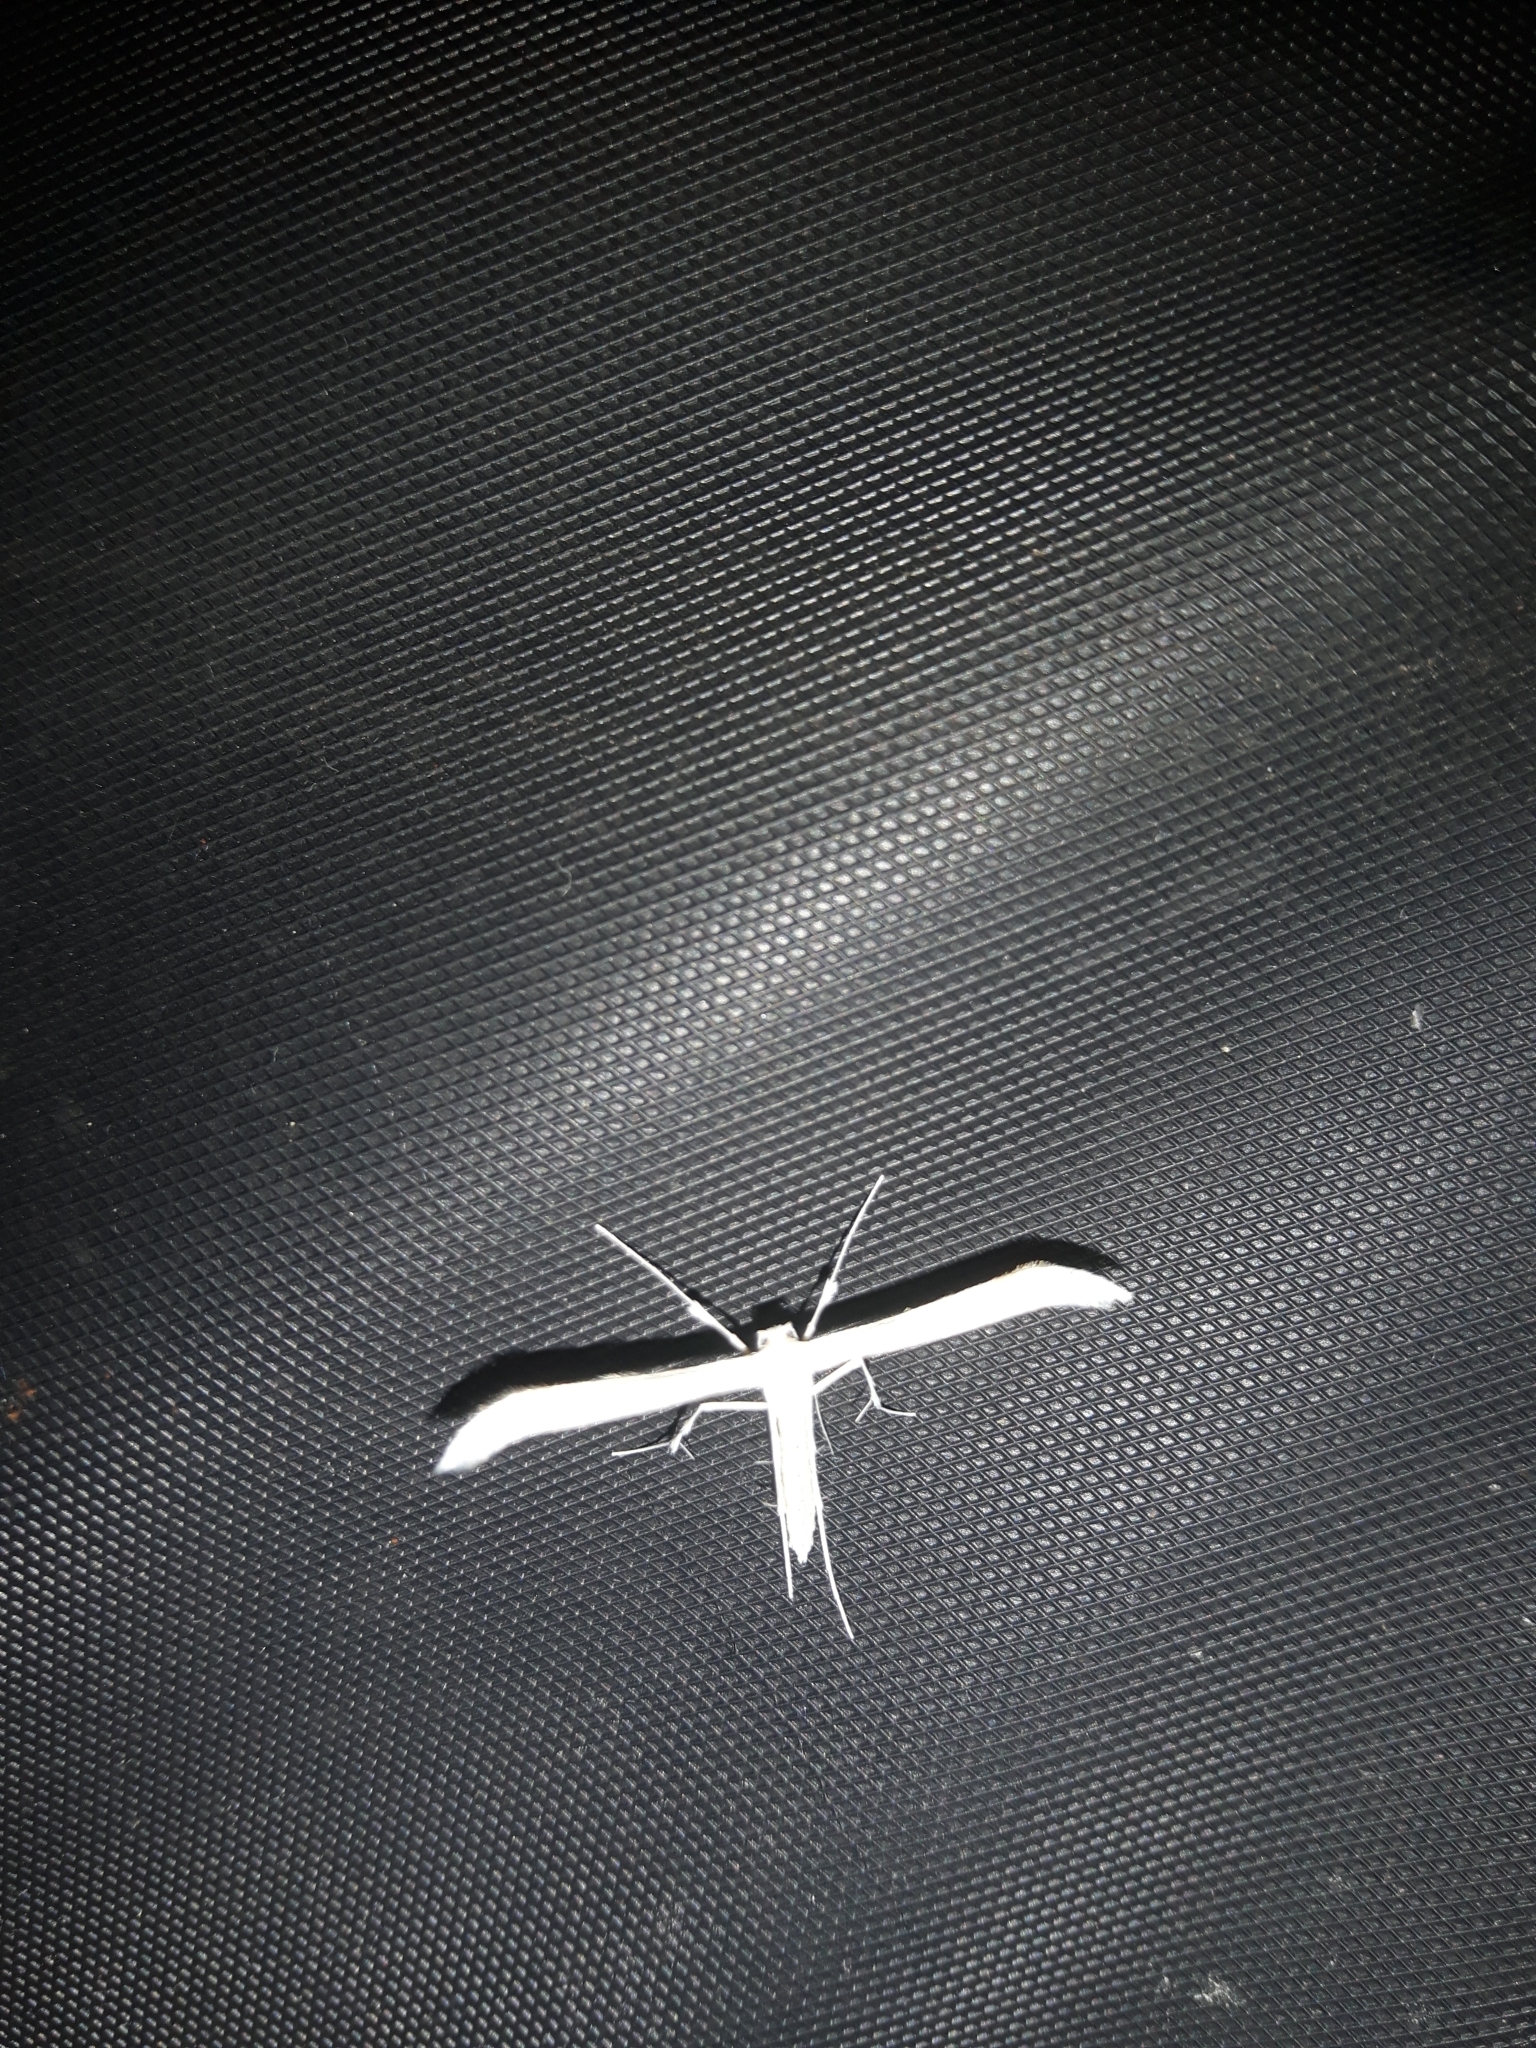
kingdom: Animalia
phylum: Arthropoda
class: Insecta
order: Lepidoptera
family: Pterophoridae
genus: Hellinsia
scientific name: Hellinsia elliottii
